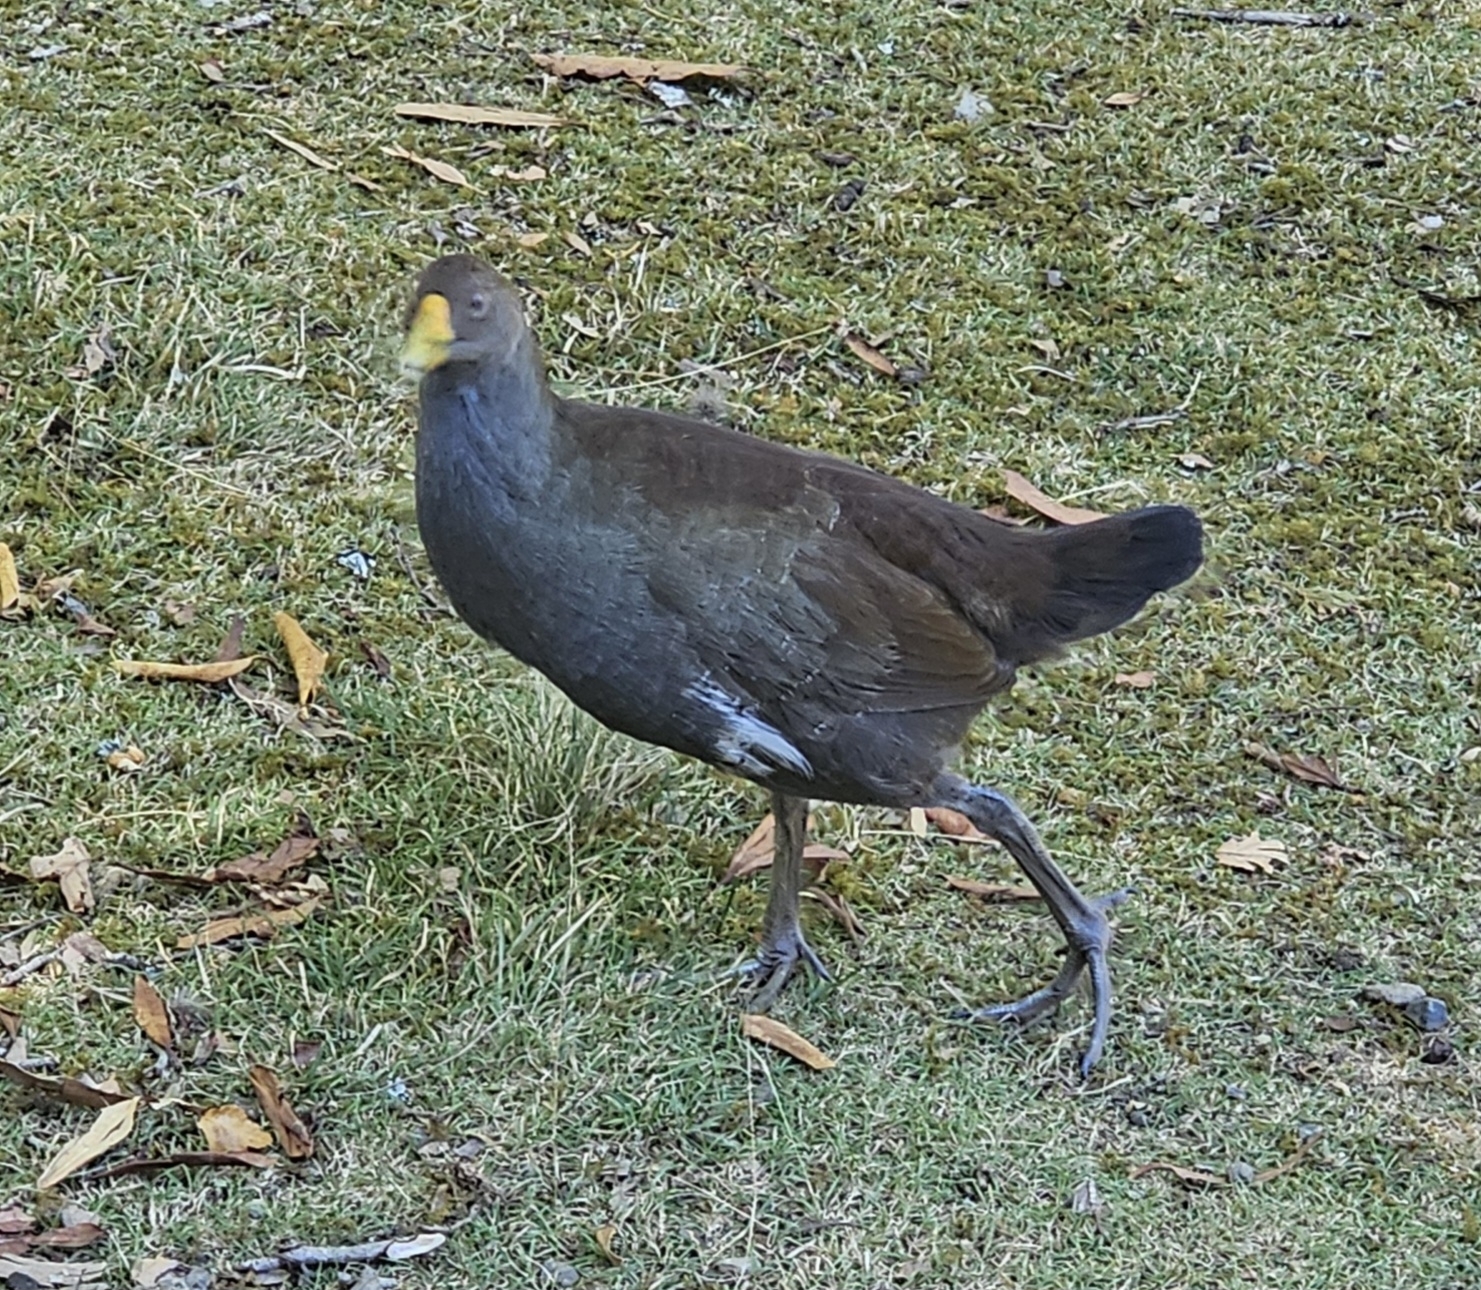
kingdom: Animalia
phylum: Chordata
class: Aves
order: Gruiformes
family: Rallidae
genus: Gallinula
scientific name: Gallinula mortierii
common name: Tasmanian nativehen
